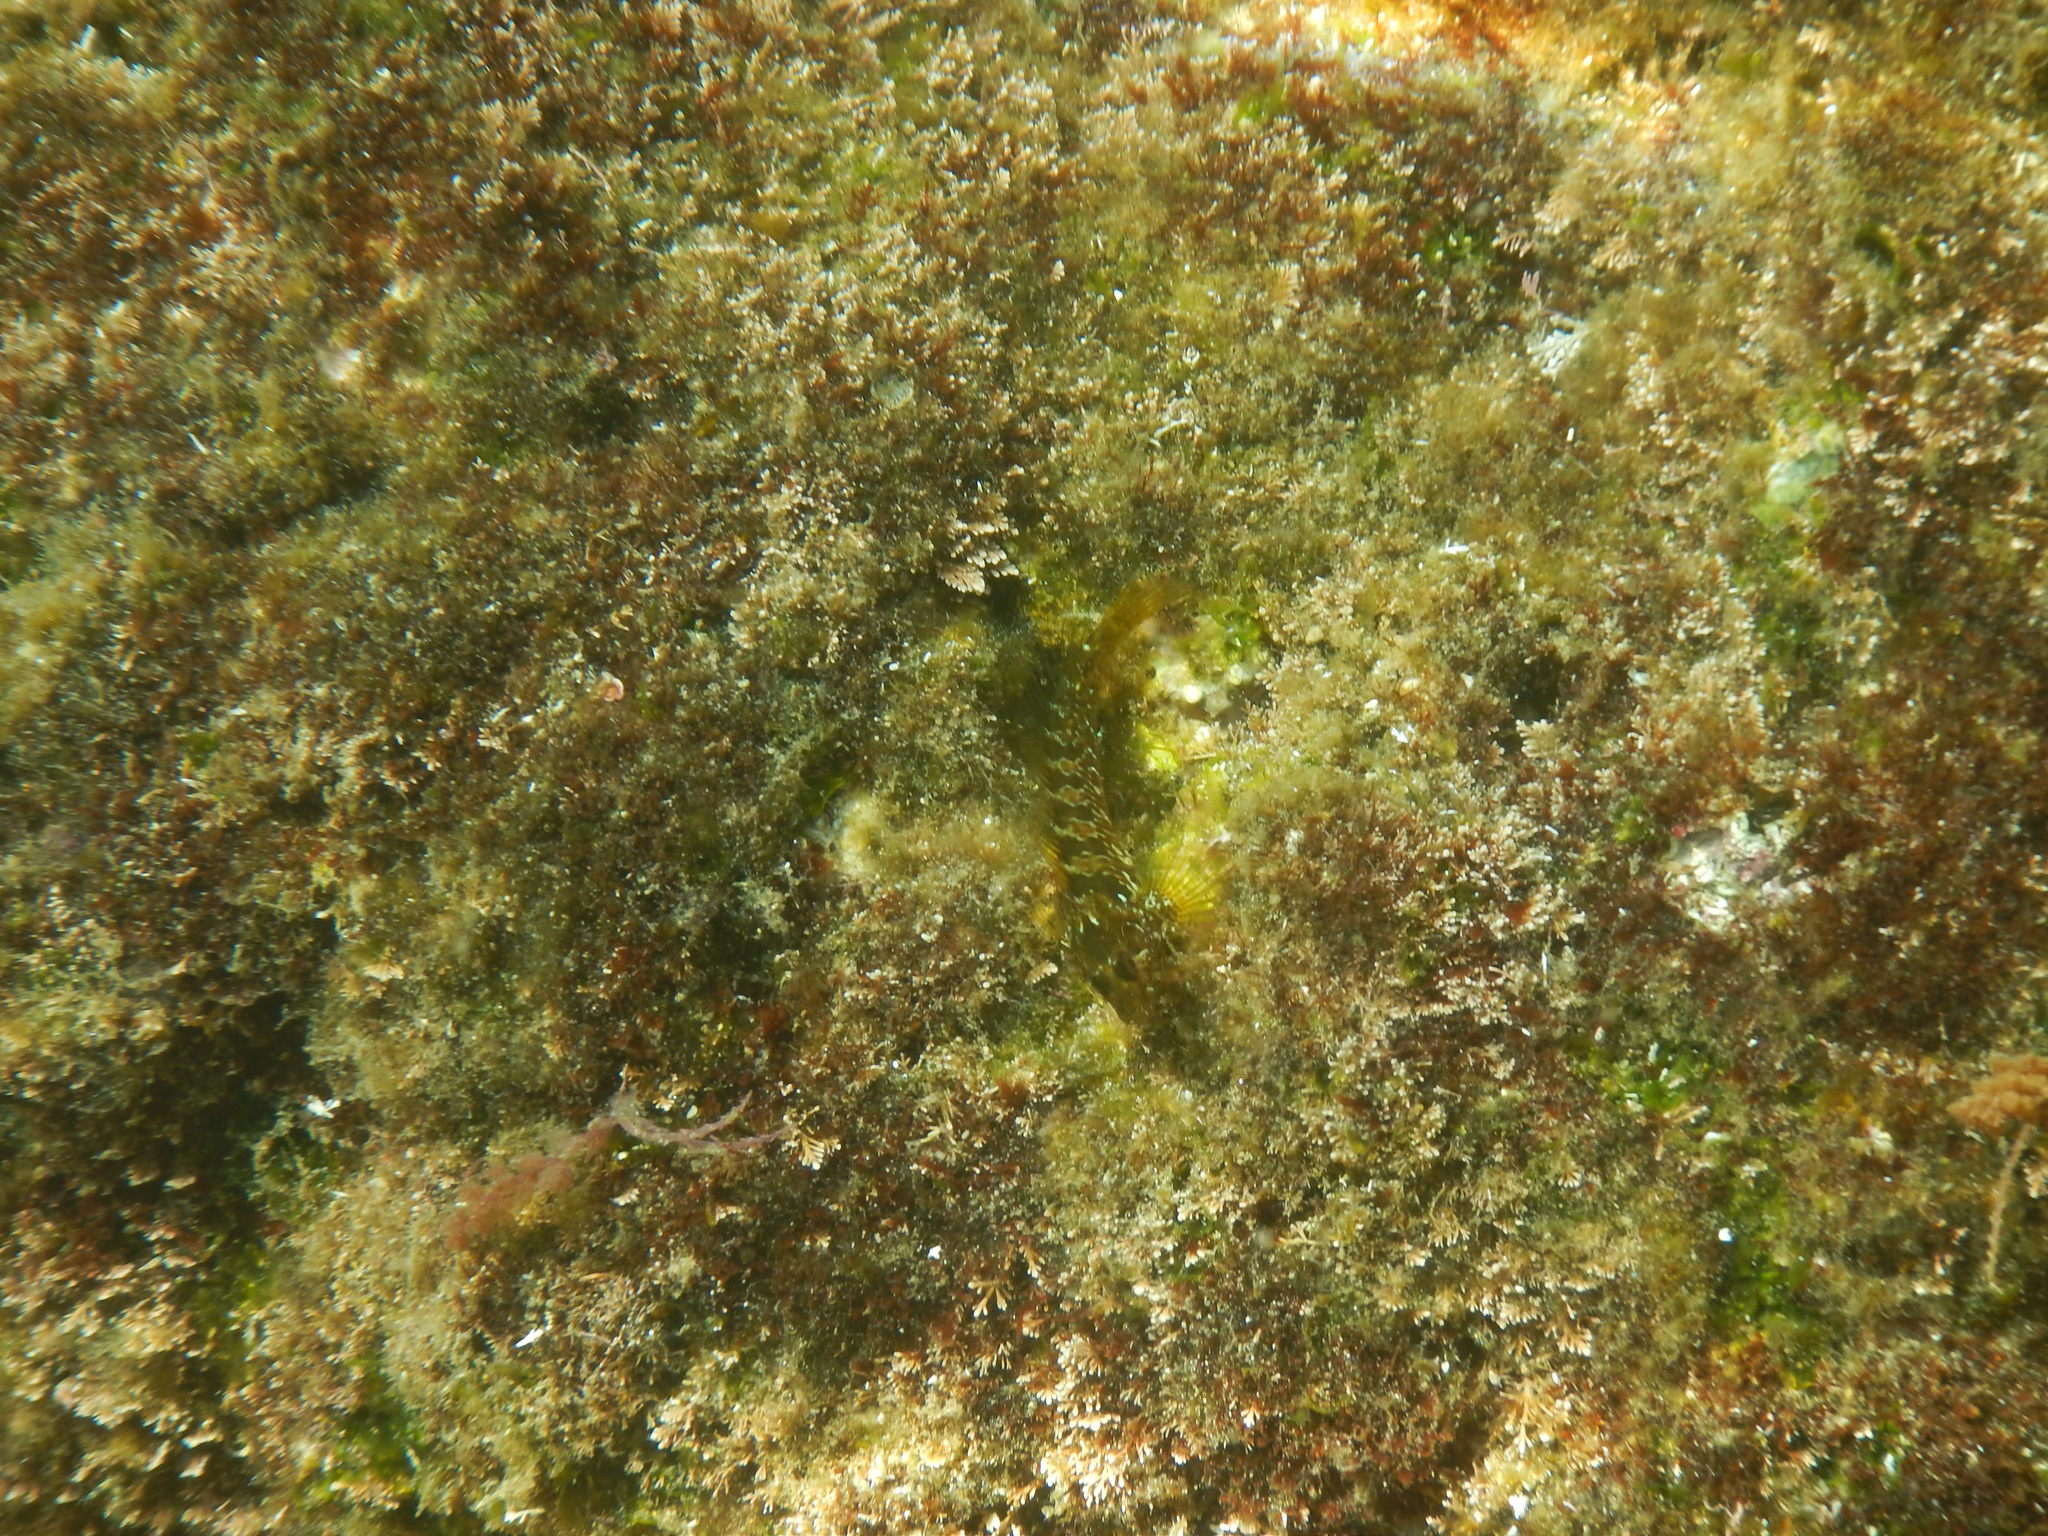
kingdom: Animalia
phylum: Chordata
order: Perciformes
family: Blenniidae
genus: Parablennius
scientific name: Parablennius incognitus
